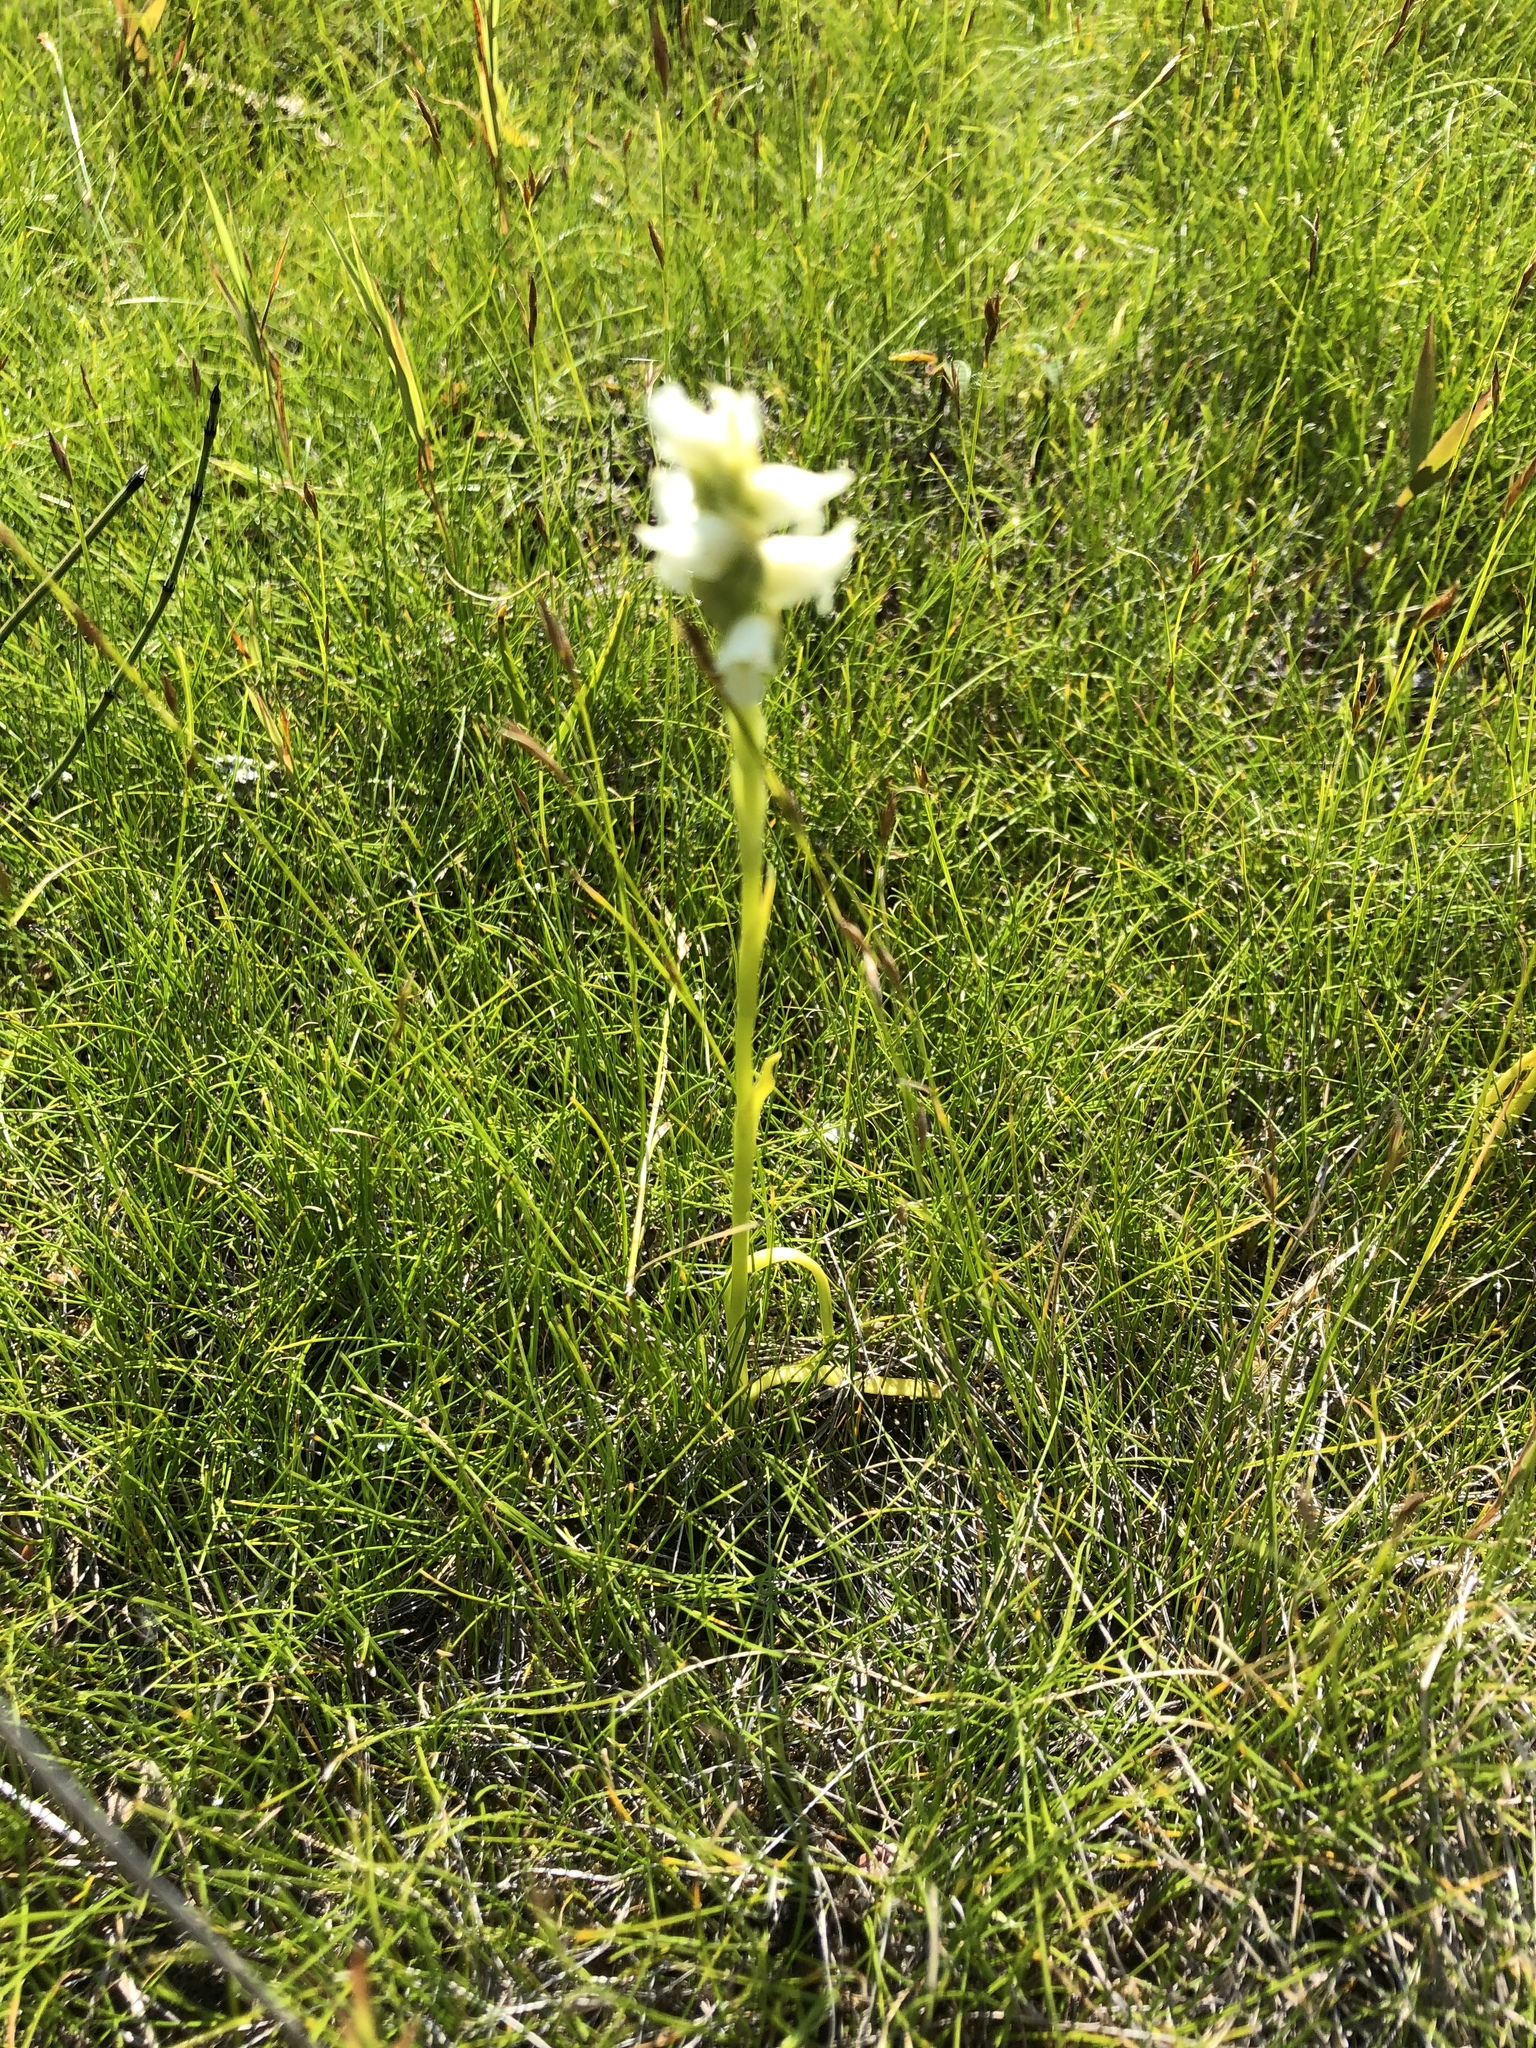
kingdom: Plantae
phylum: Tracheophyta
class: Liliopsida
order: Asparagales
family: Orchidaceae
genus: Spiranthes
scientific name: Spiranthes romanzoffiana
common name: Irish lady's-tresses
